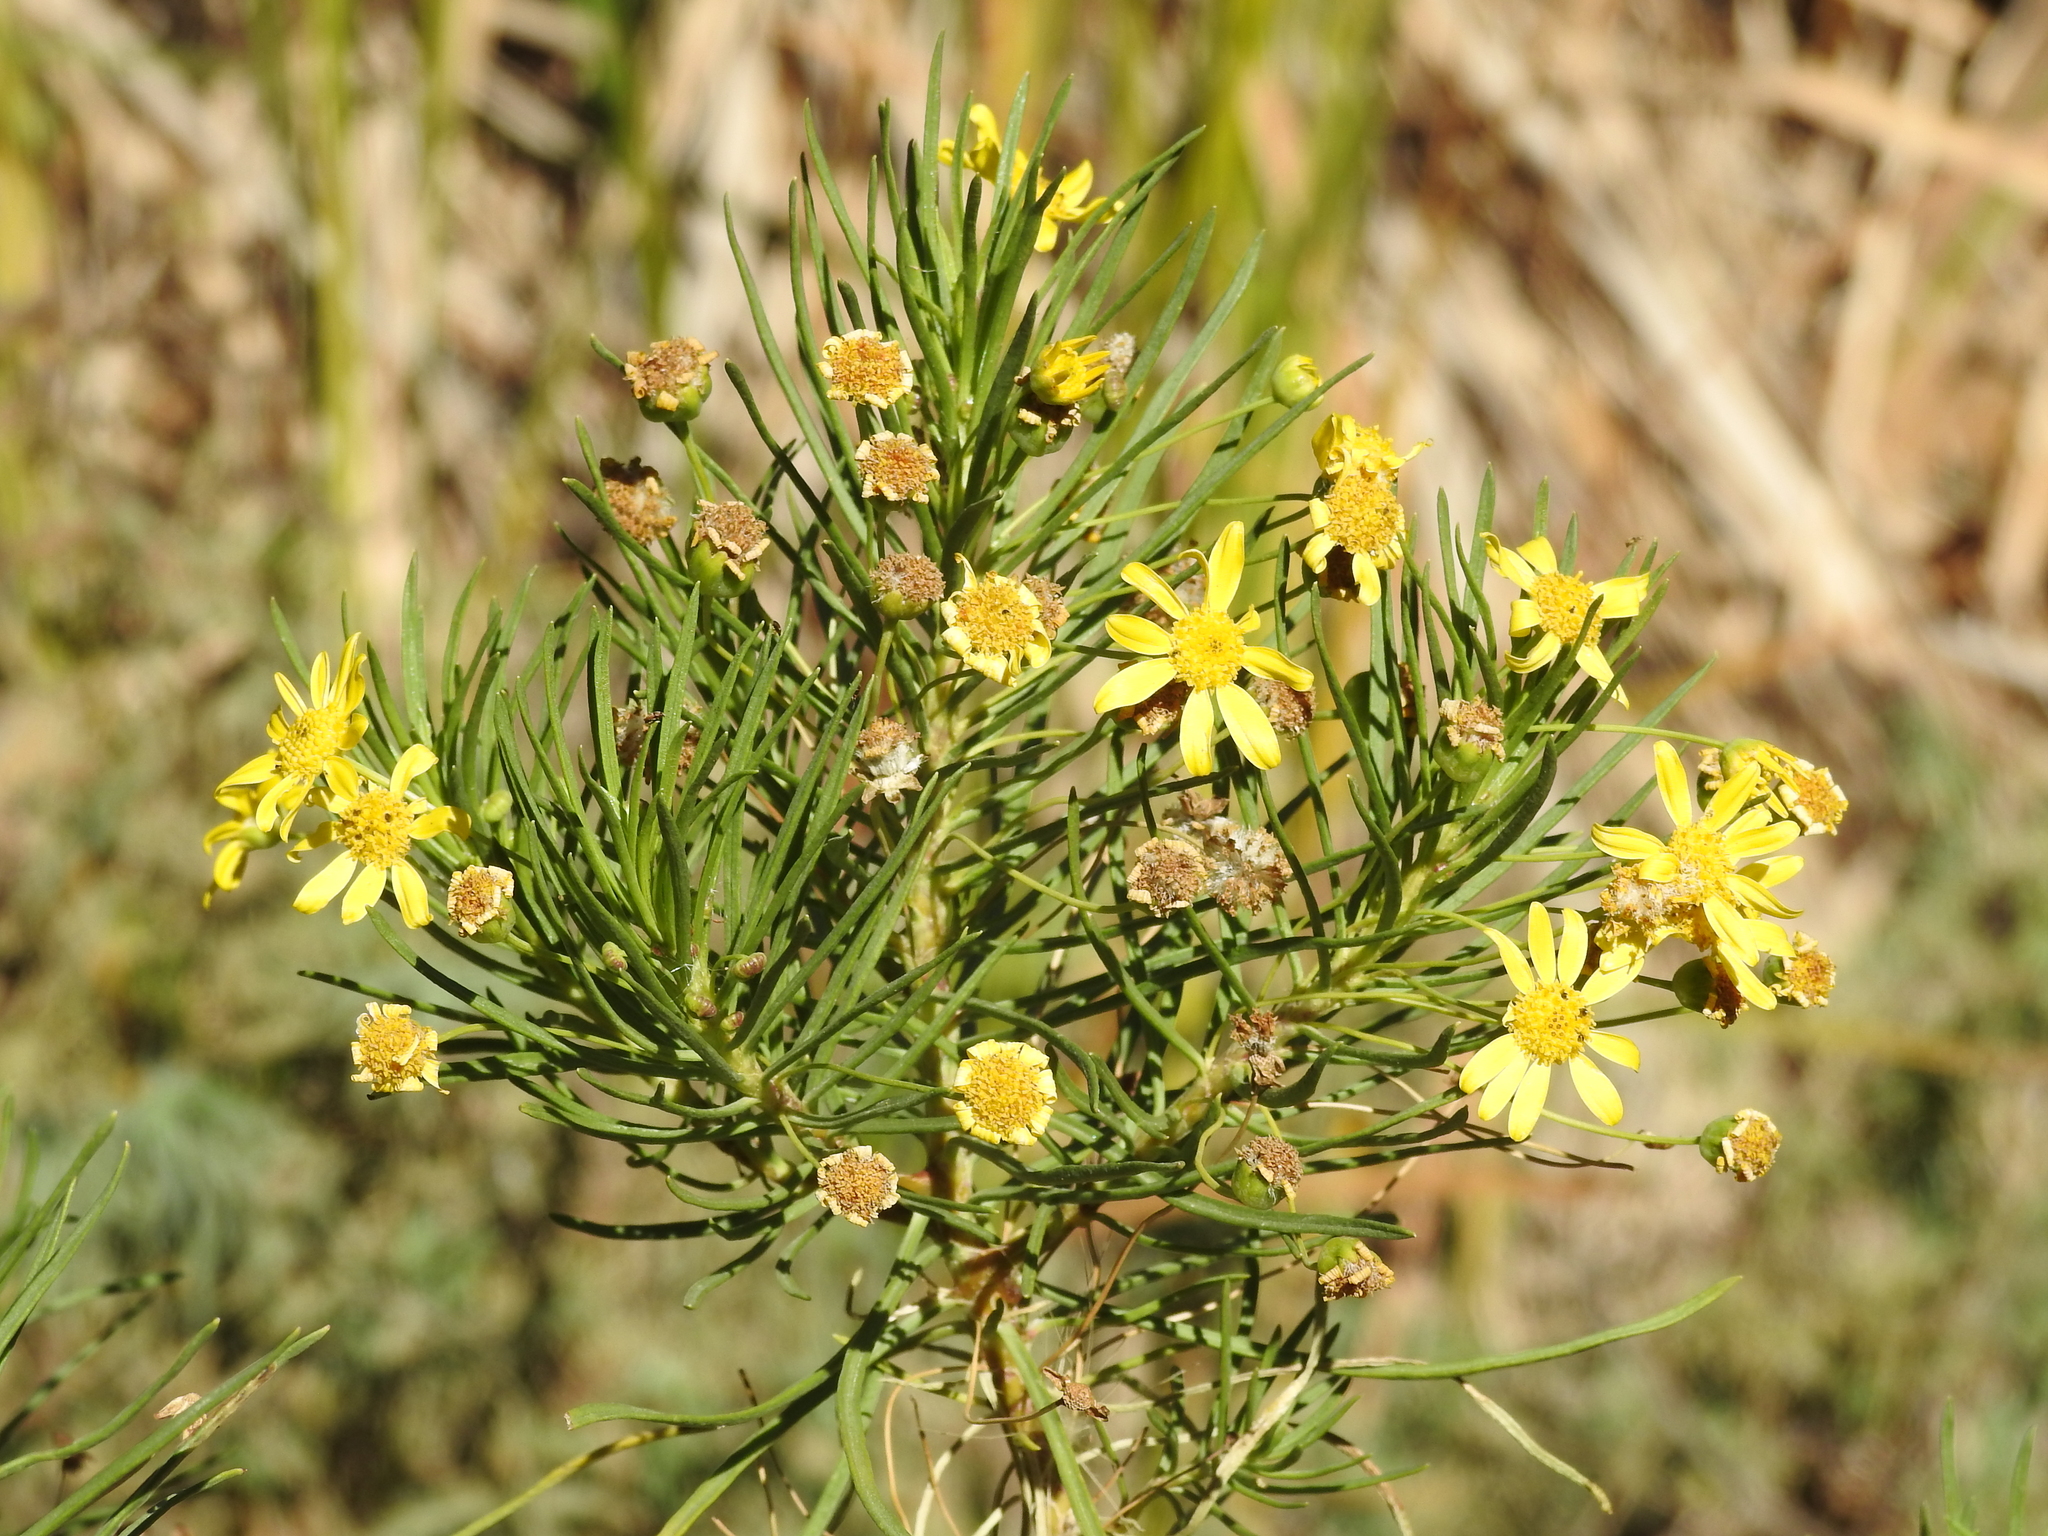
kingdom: Plantae
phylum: Tracheophyta
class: Magnoliopsida
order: Asterales
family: Asteraceae
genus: Euryops
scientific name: Euryops arabicus
